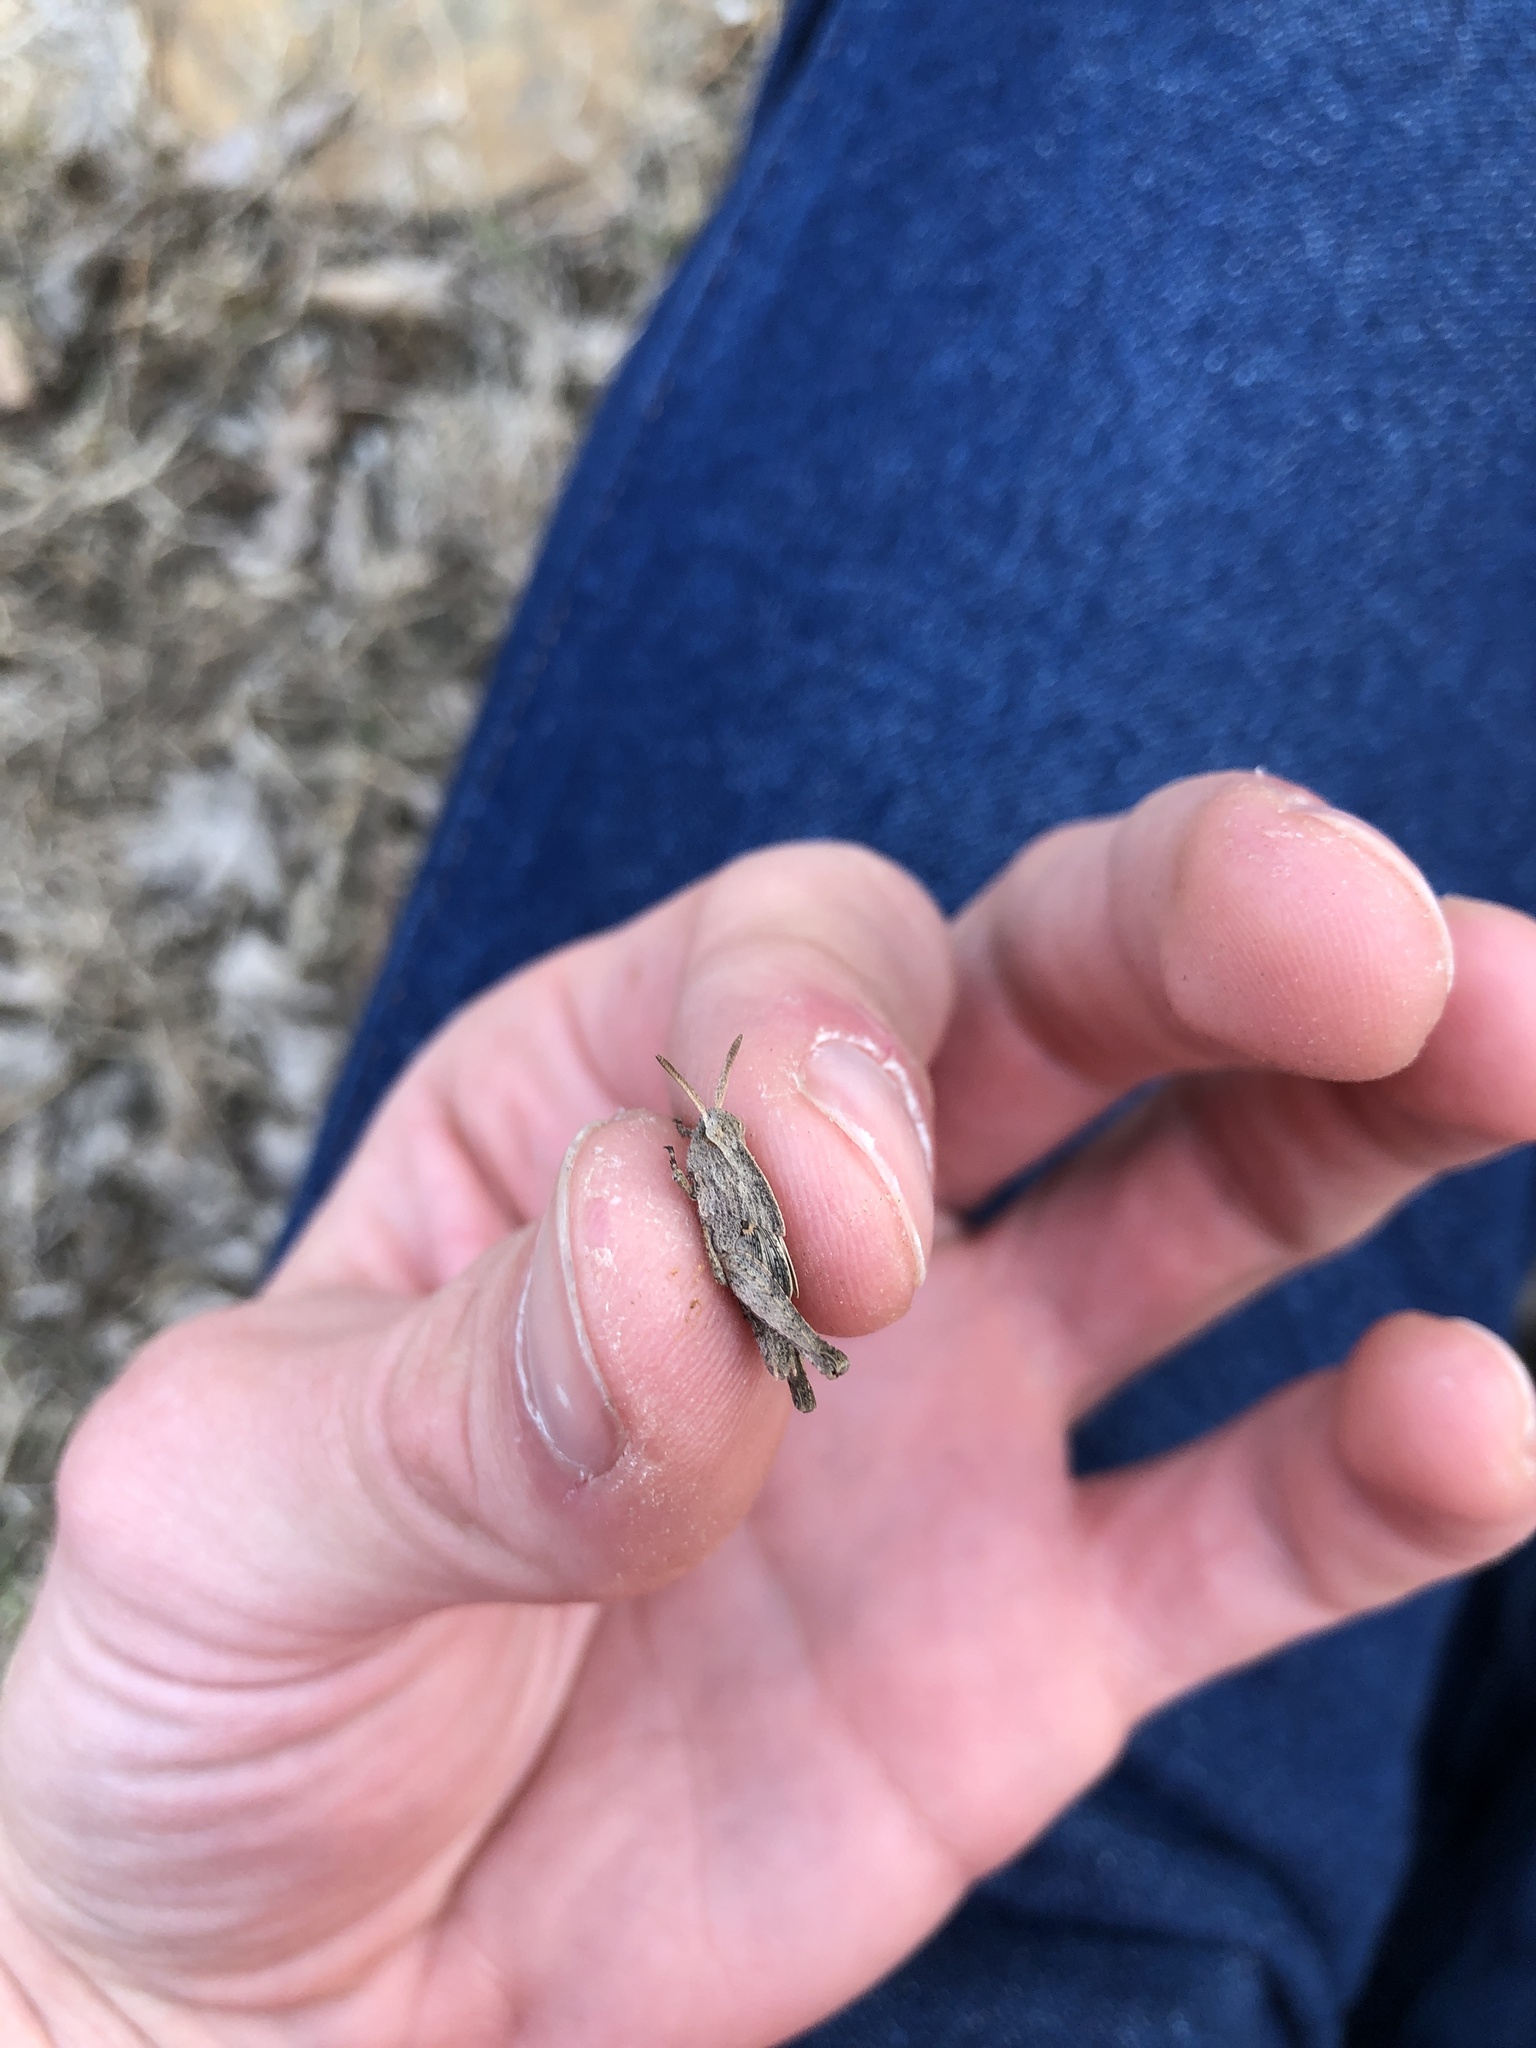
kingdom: Animalia
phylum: Arthropoda
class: Insecta
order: Orthoptera
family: Acrididae
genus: Chortophaga
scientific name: Chortophaga viridifasciata
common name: Green-striped grasshopper
